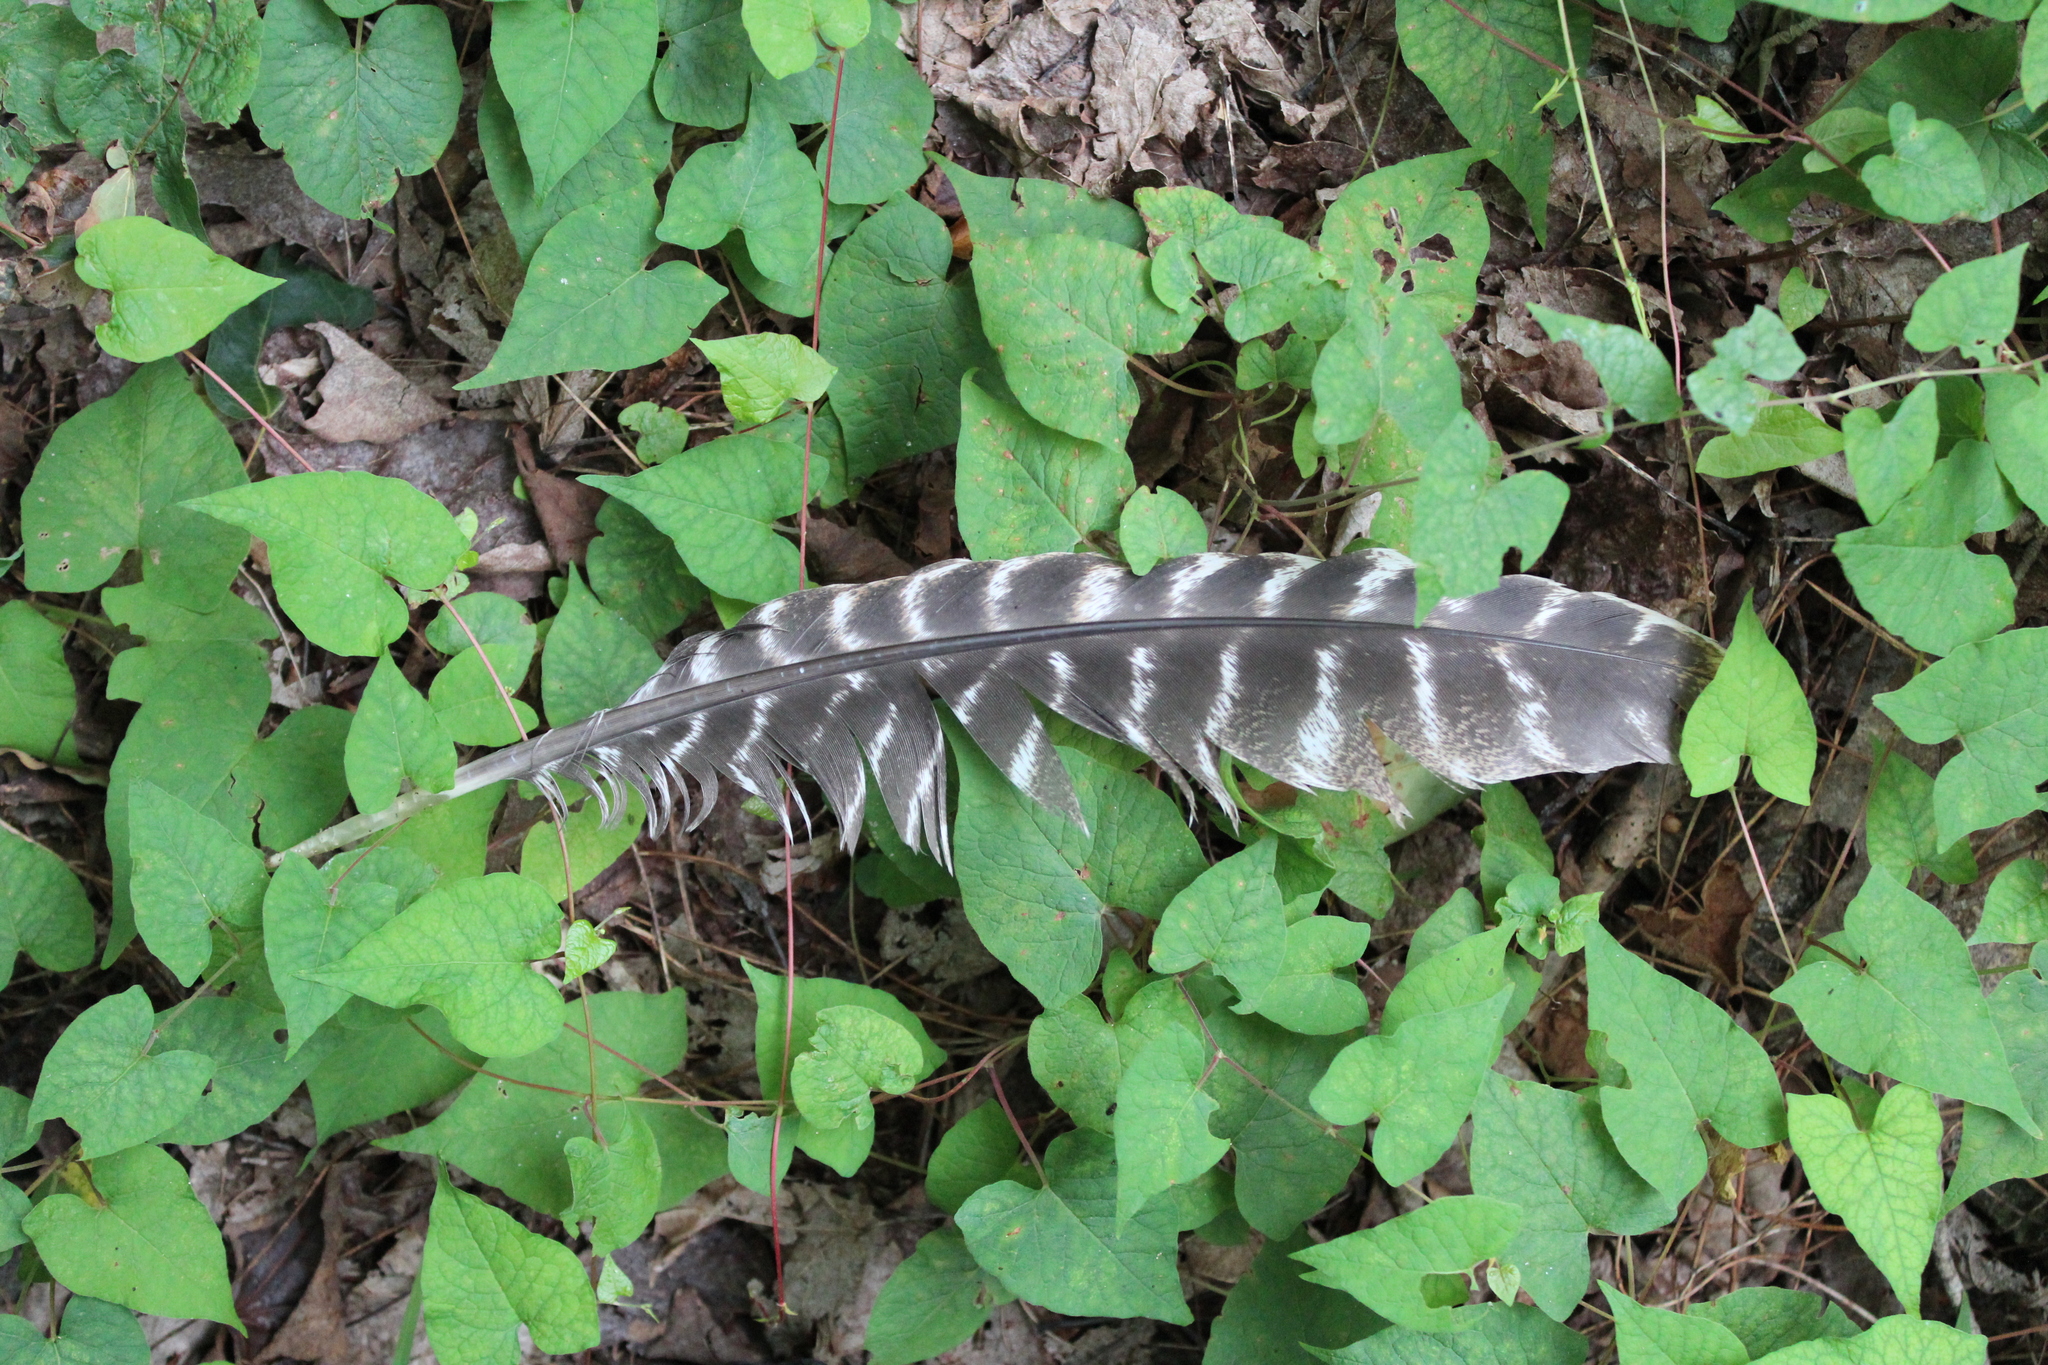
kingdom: Animalia
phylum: Chordata
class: Aves
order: Galliformes
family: Phasianidae
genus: Meleagris
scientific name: Meleagris gallopavo
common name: Wild turkey
